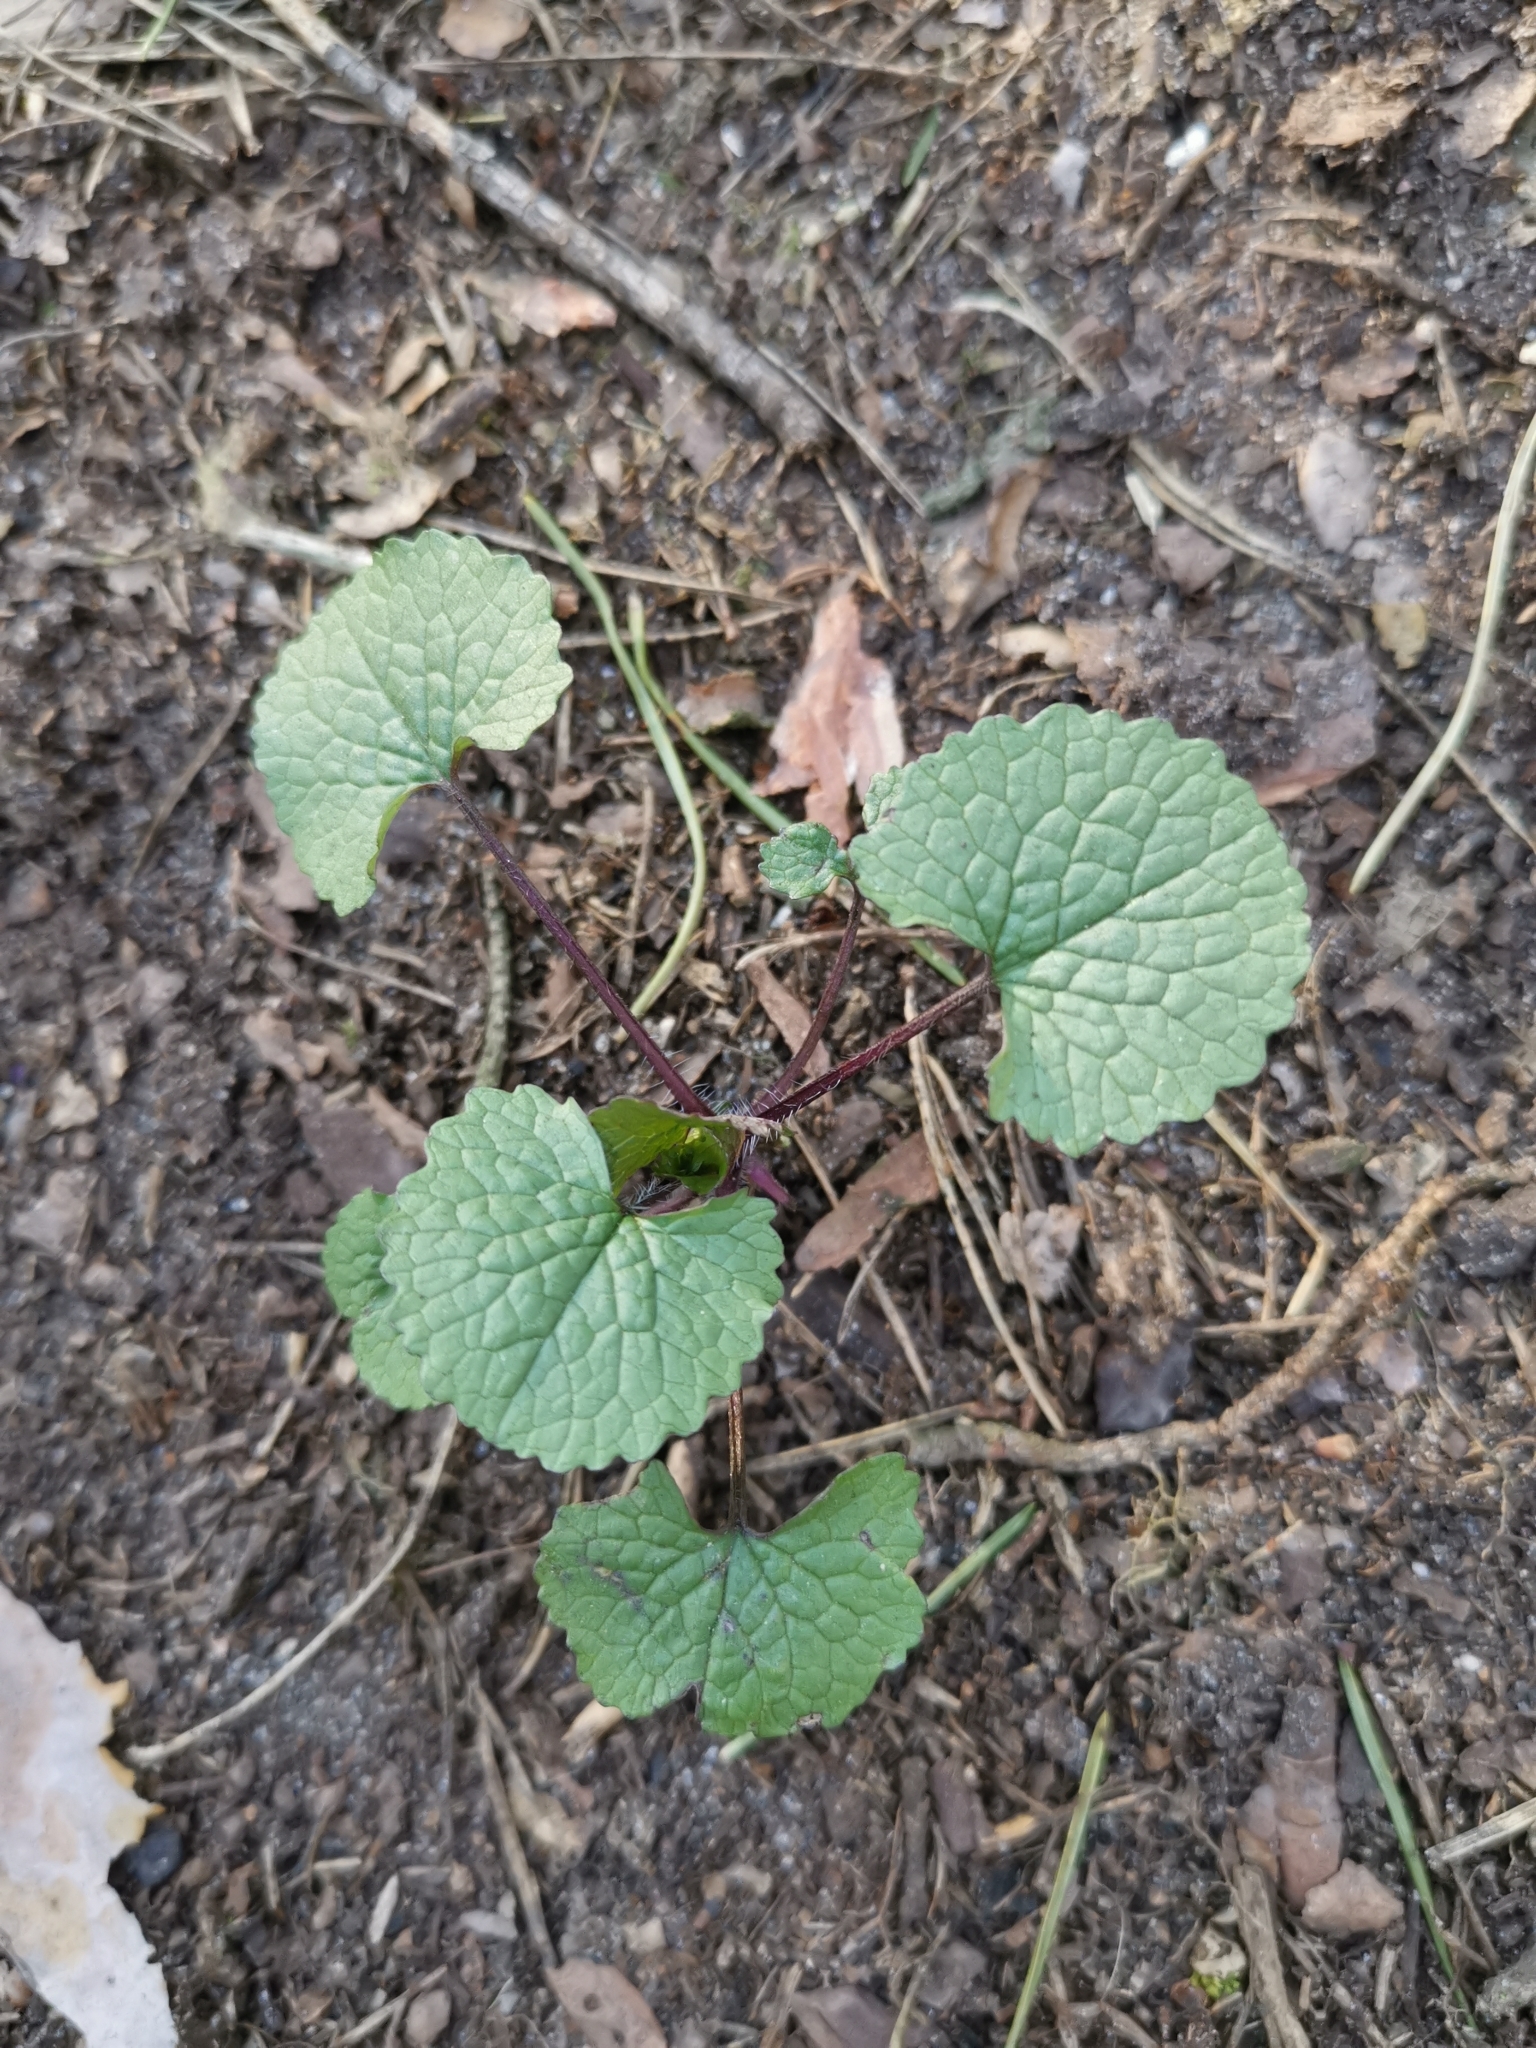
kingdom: Plantae
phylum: Tracheophyta
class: Magnoliopsida
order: Brassicales
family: Brassicaceae
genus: Alliaria
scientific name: Alliaria petiolata
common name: Garlic mustard
